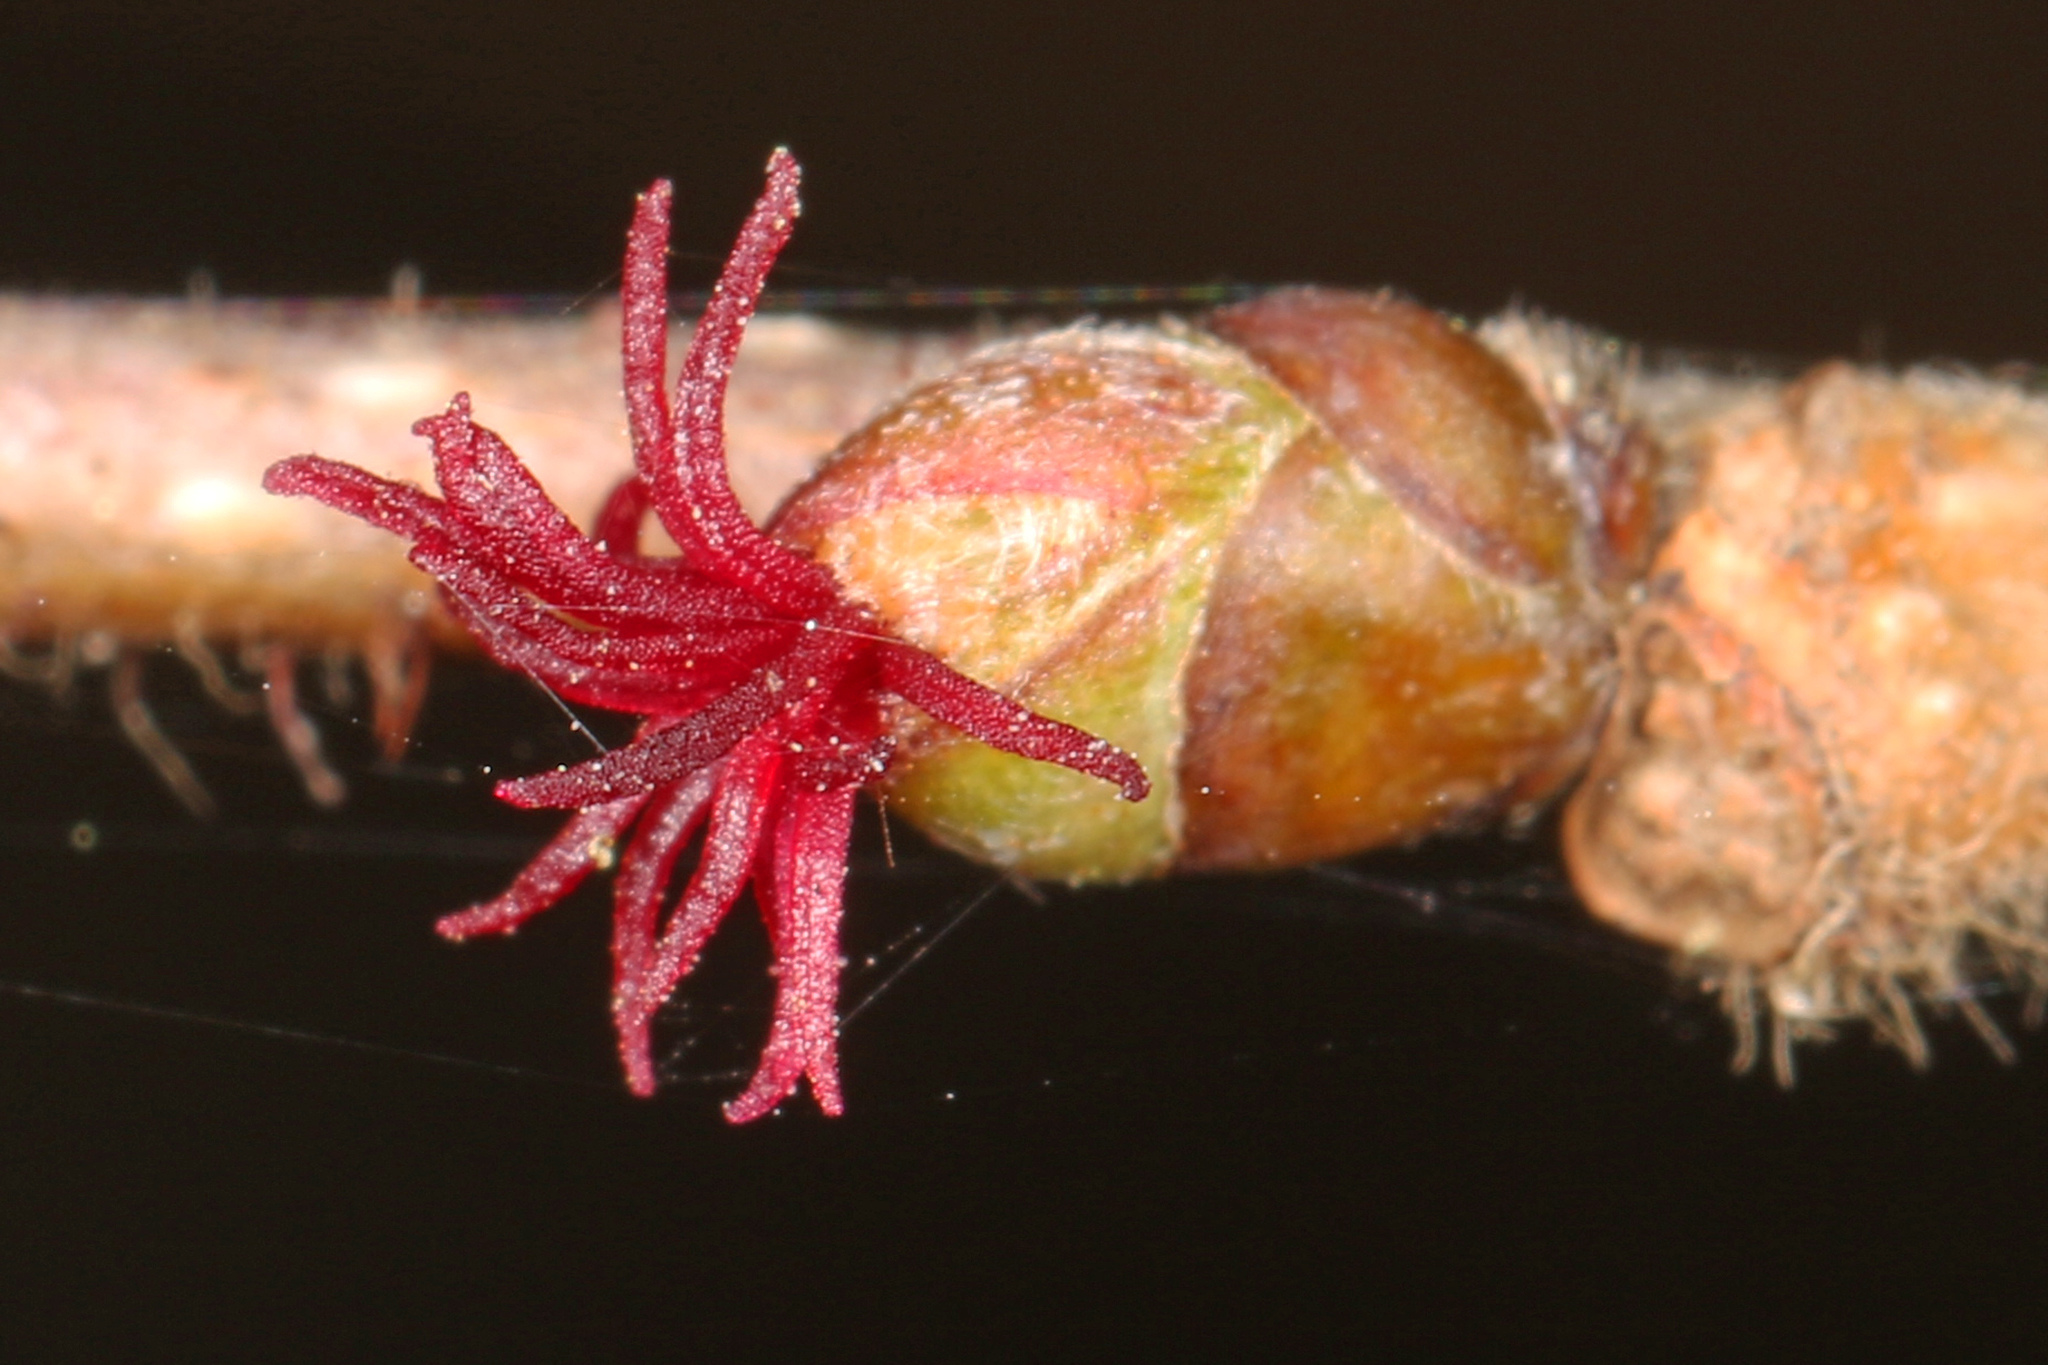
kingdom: Plantae
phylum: Tracheophyta
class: Magnoliopsida
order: Fagales
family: Betulaceae
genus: Corylus
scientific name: Corylus americana
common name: American hazel
